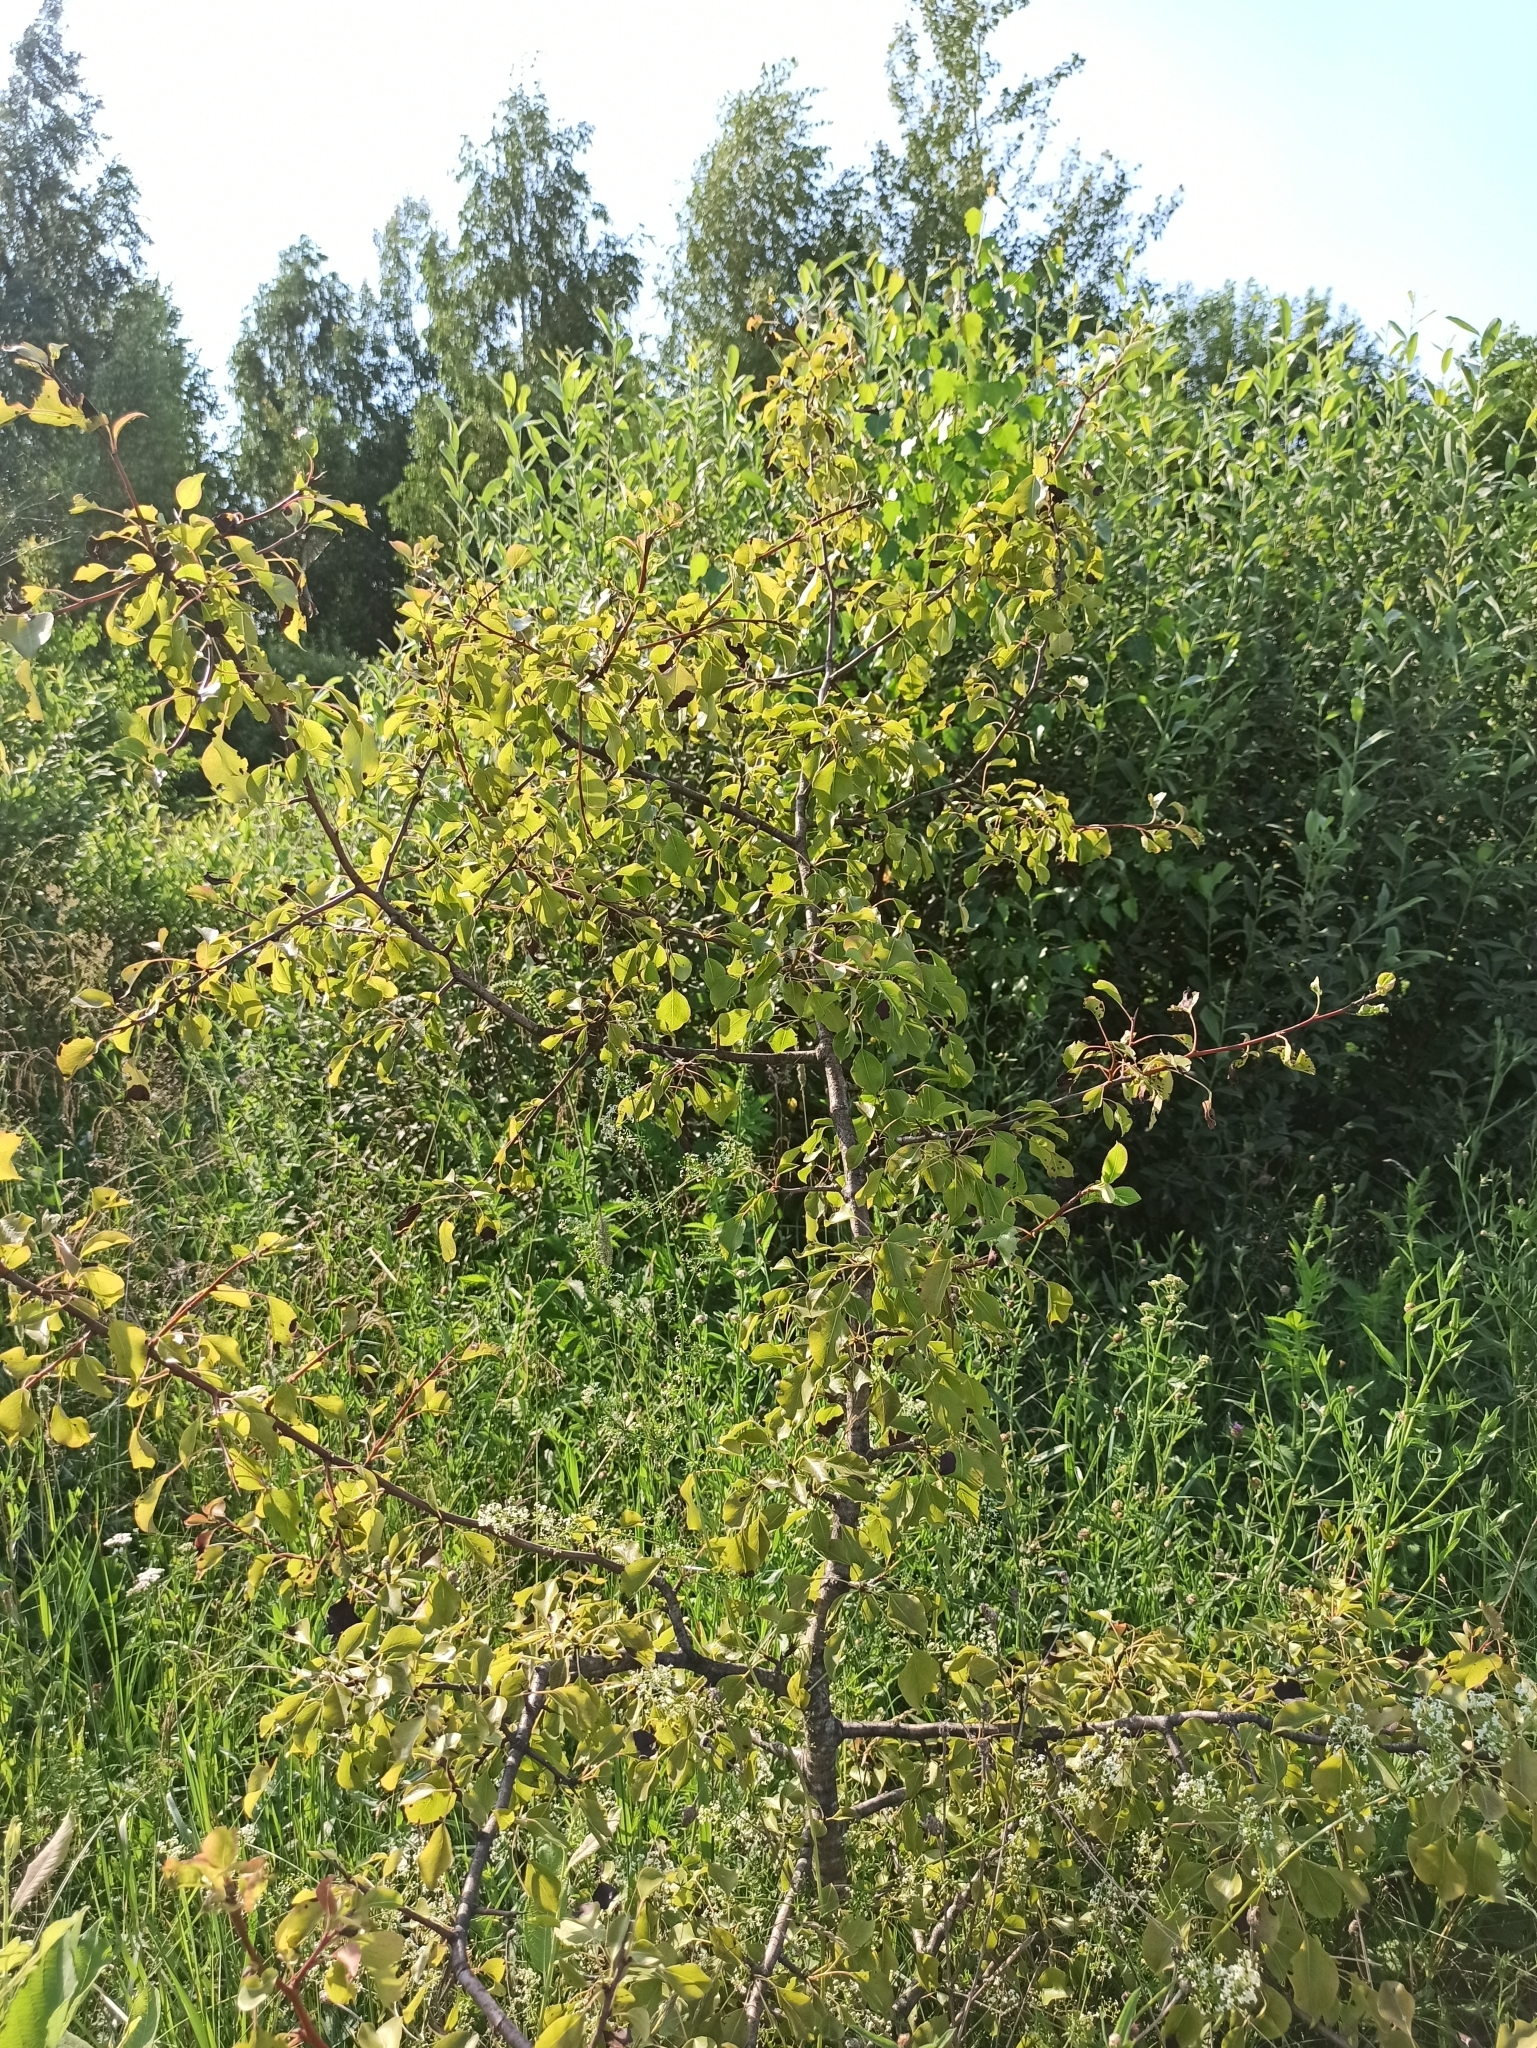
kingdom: Plantae
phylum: Tracheophyta
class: Magnoliopsida
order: Rosales
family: Rosaceae
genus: Pyrus
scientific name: Pyrus communis
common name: Pear
